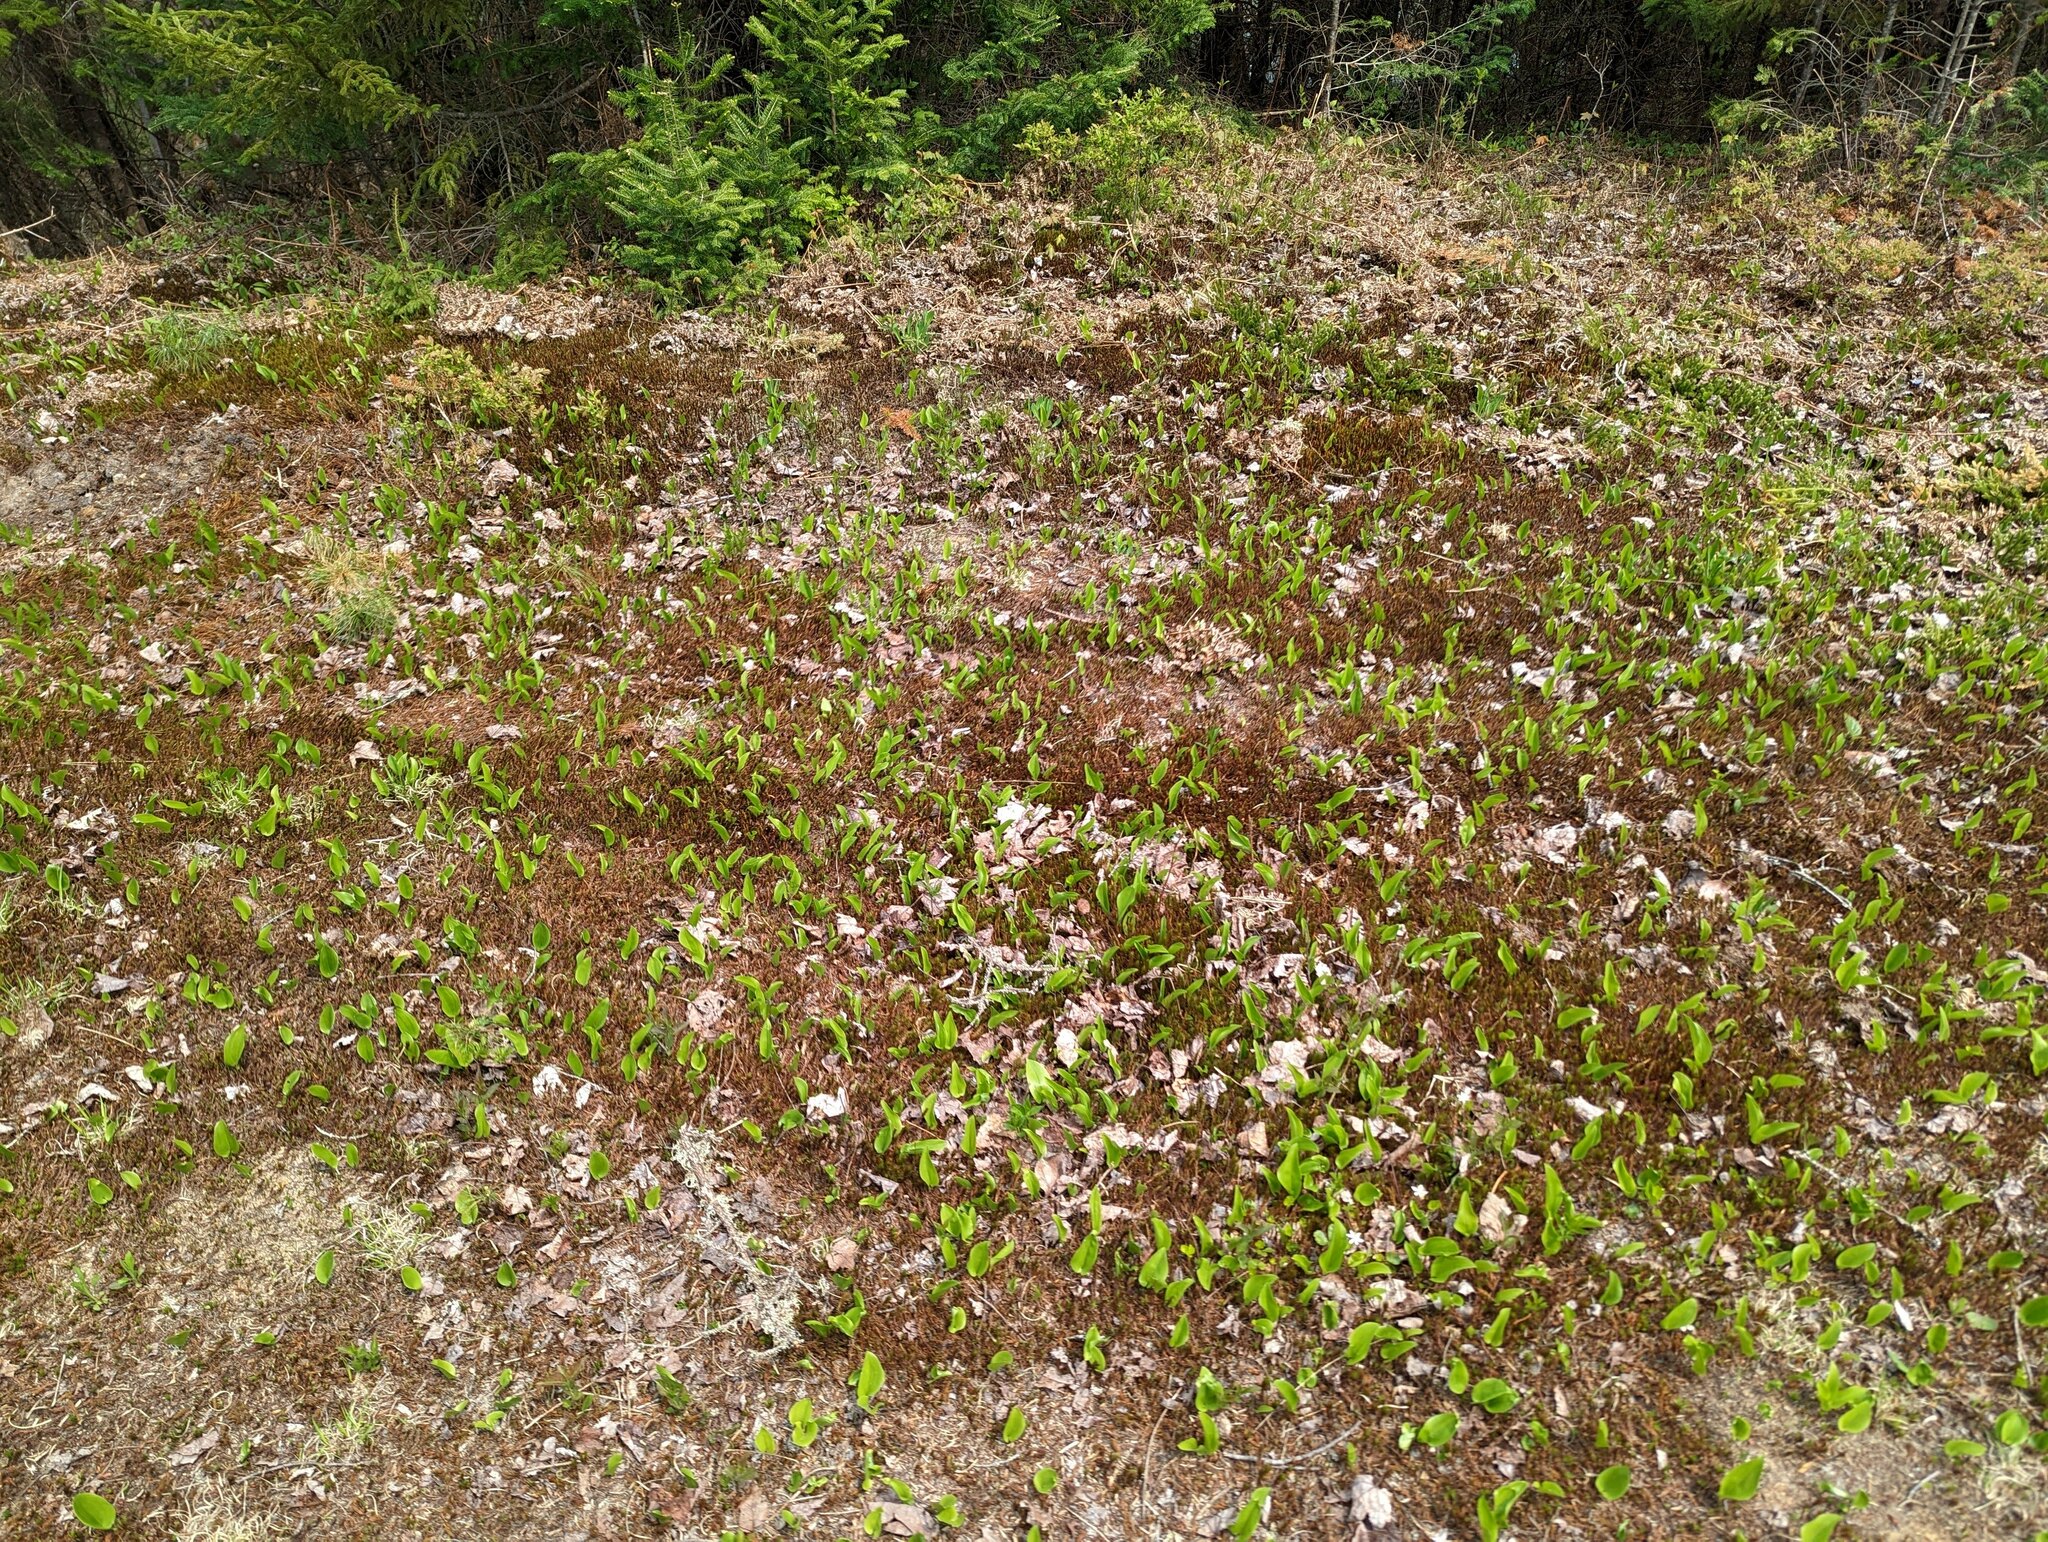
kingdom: Plantae
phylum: Tracheophyta
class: Liliopsida
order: Asparagales
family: Asparagaceae
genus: Maianthemum
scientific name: Maianthemum canadense
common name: False lily-of-the-valley
